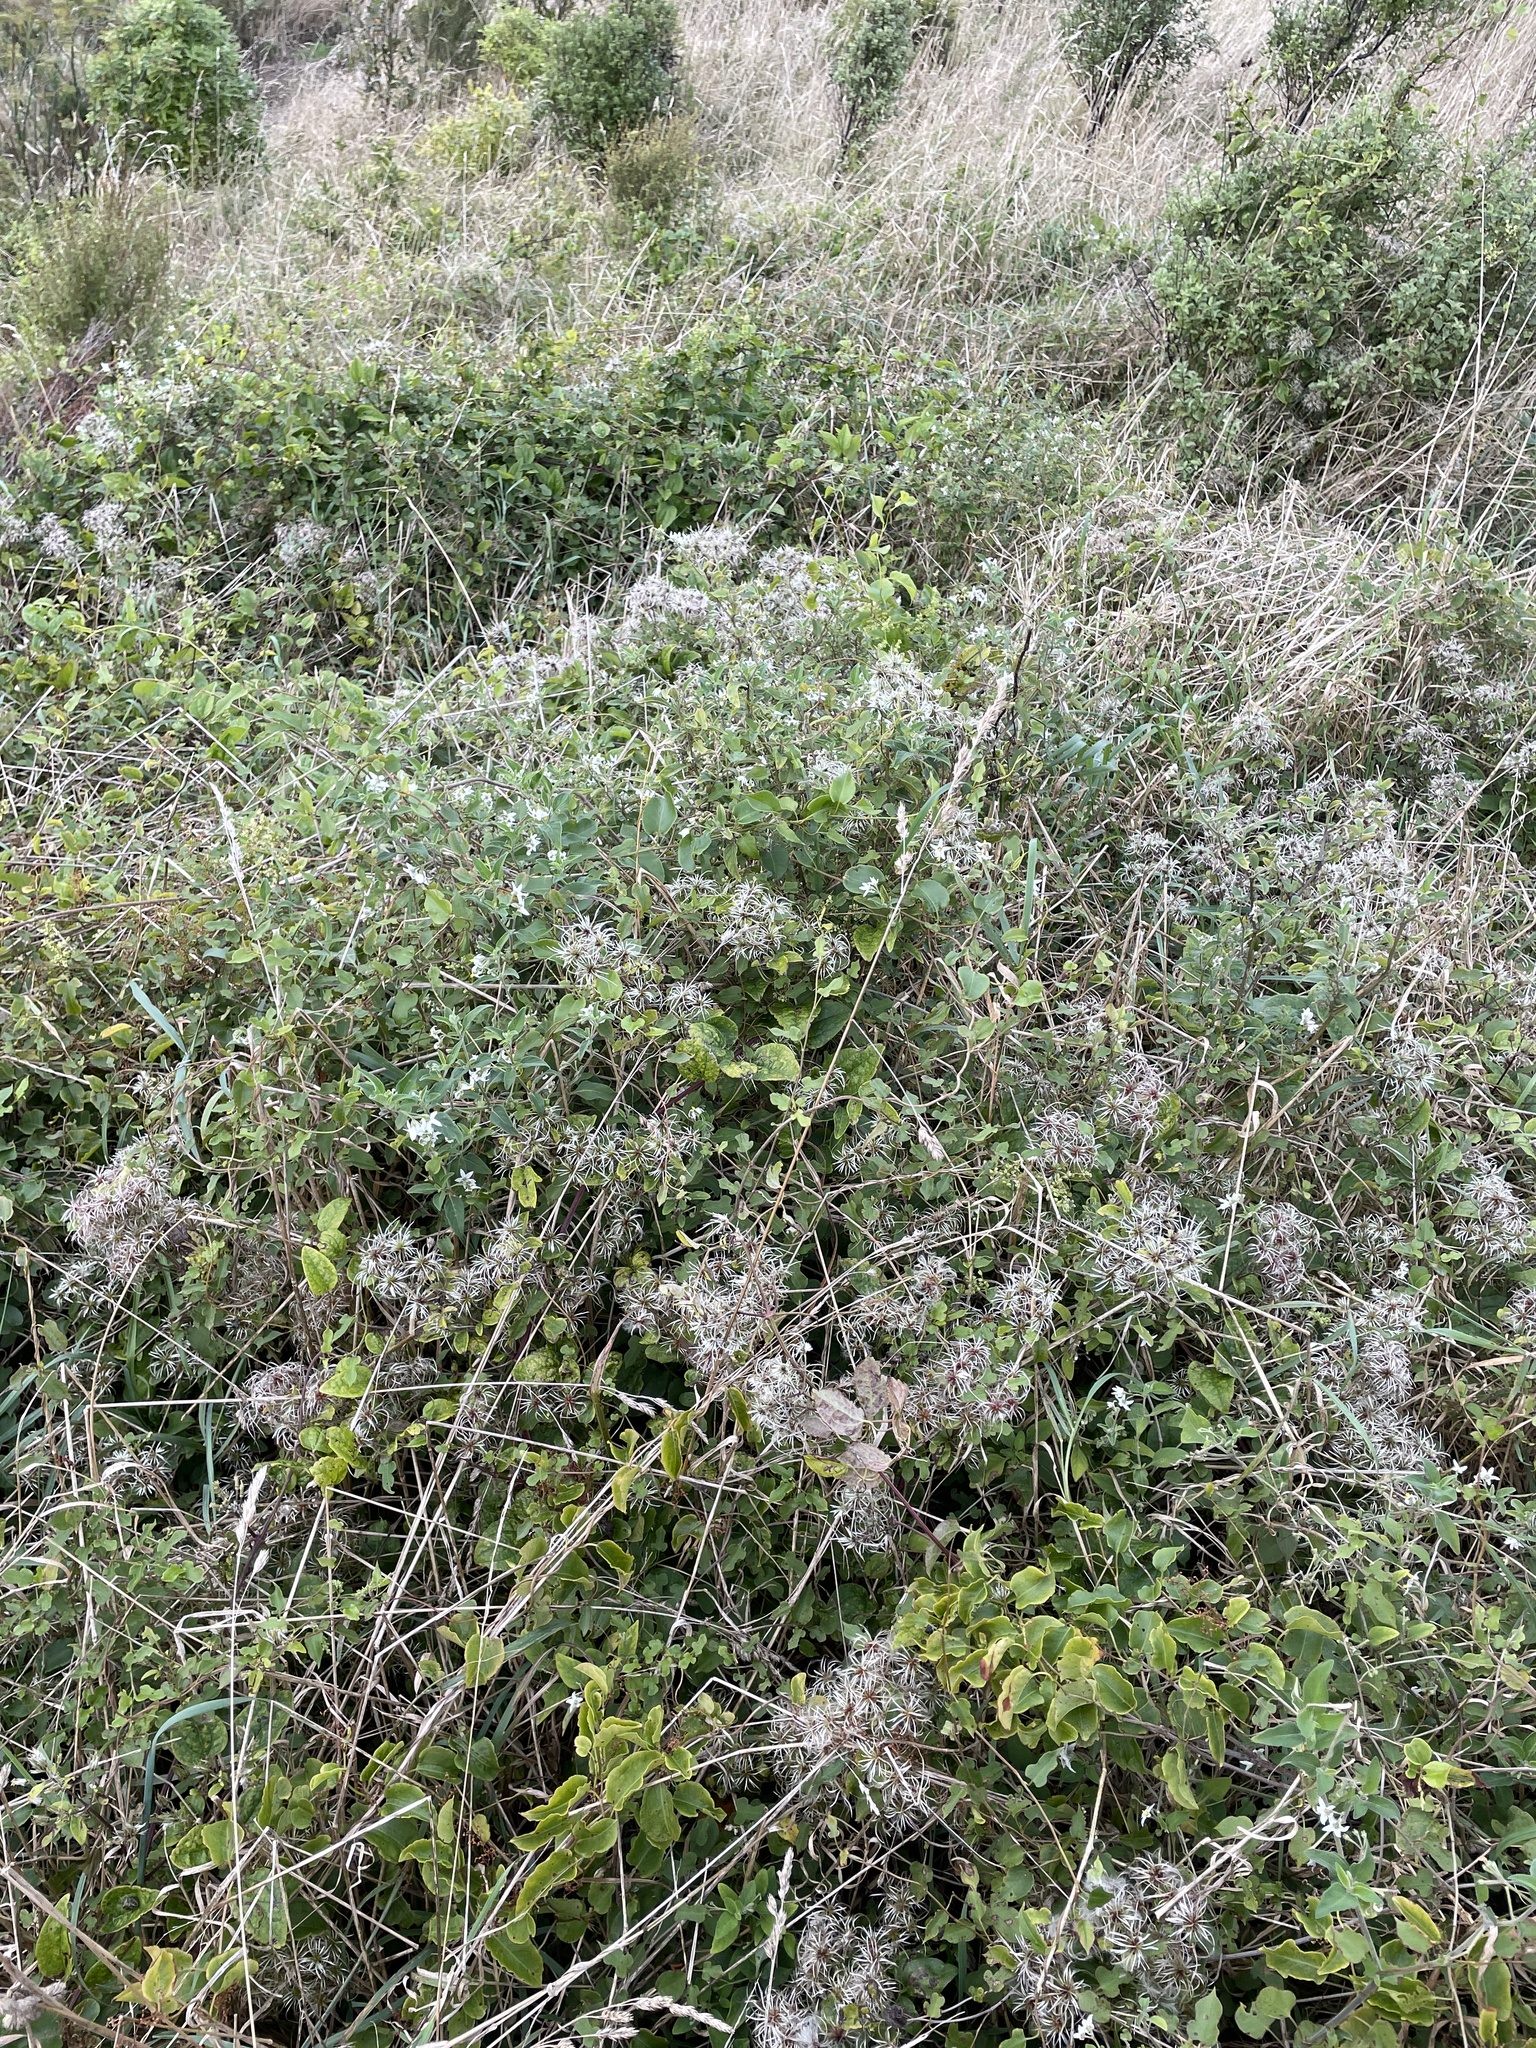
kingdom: Plantae
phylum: Tracheophyta
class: Magnoliopsida
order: Ranunculales
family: Ranunculaceae
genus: Clematis
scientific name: Clematis vitalba
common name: Evergreen clematis
